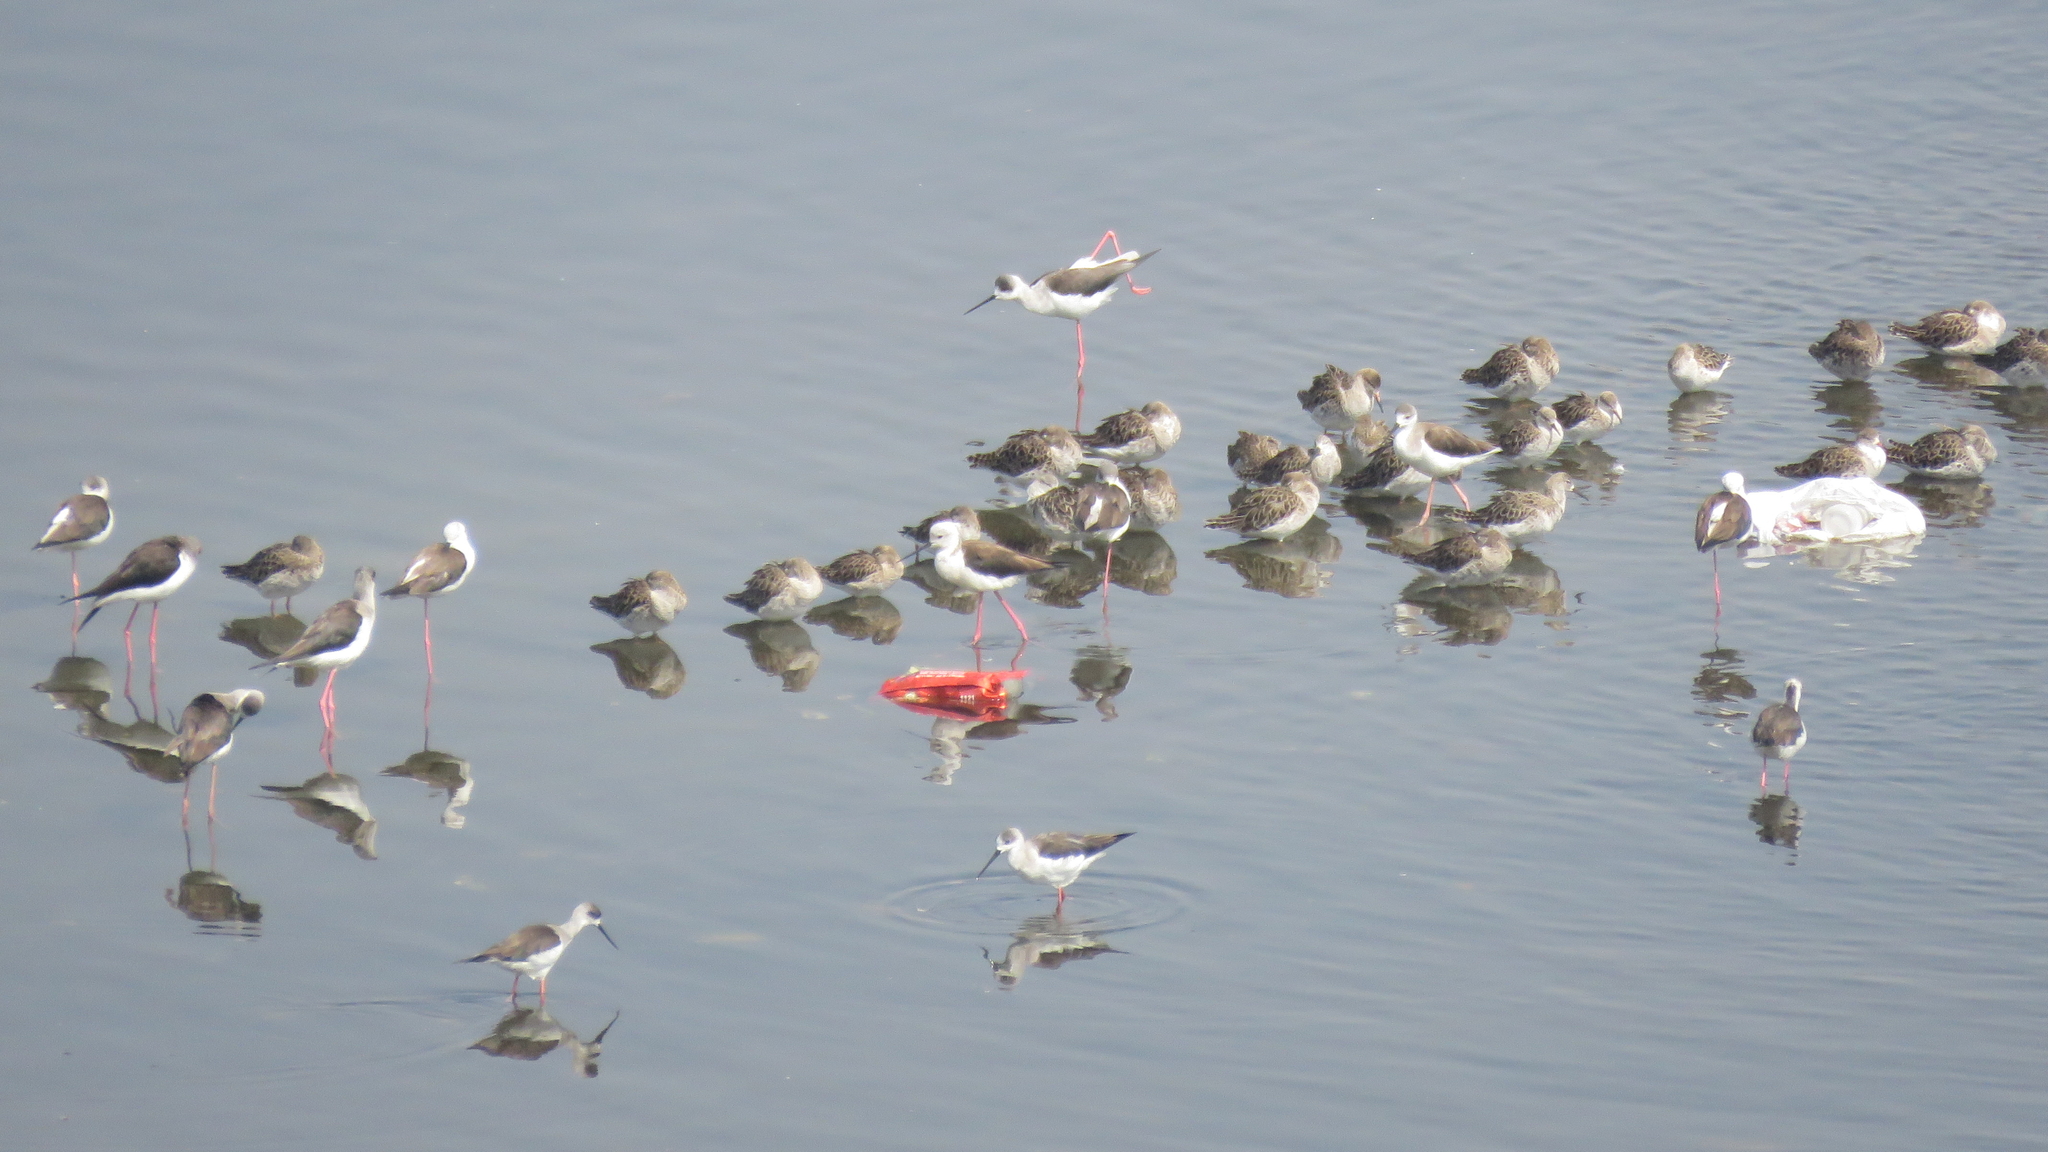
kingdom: Animalia
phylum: Chordata
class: Aves
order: Charadriiformes
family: Scolopacidae
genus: Calidris
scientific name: Calidris pugnax
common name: Ruff
